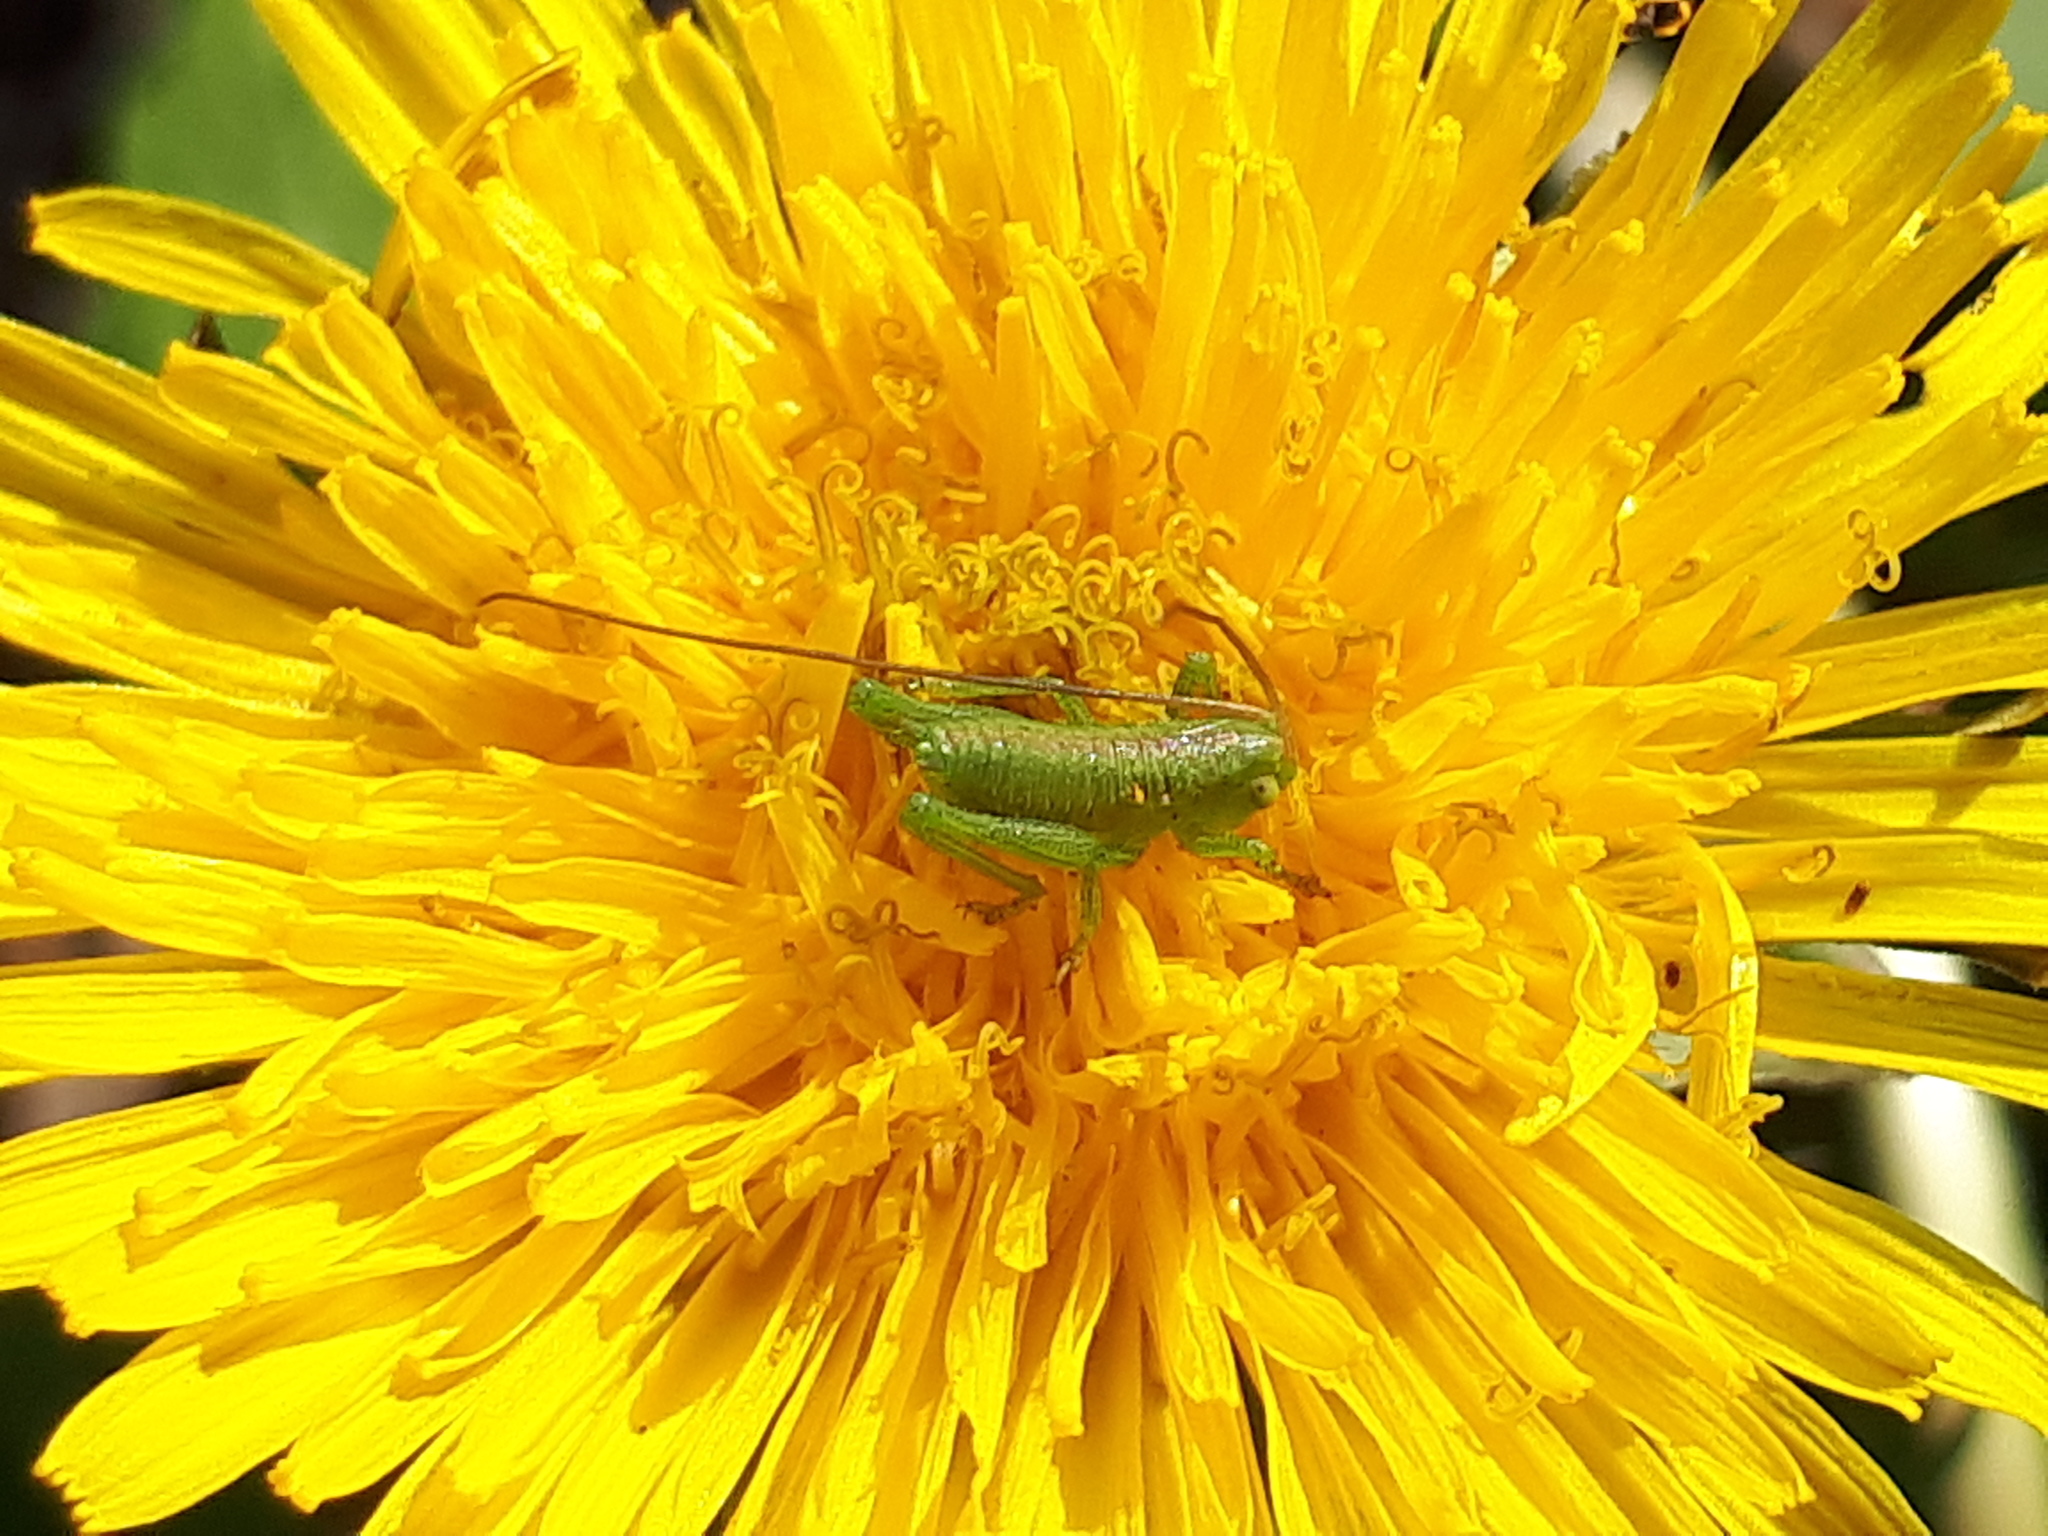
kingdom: Animalia
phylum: Arthropoda
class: Insecta
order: Orthoptera
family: Tettigoniidae
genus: Tettigonia
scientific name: Tettigonia viridissima
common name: Great green bush-cricket
